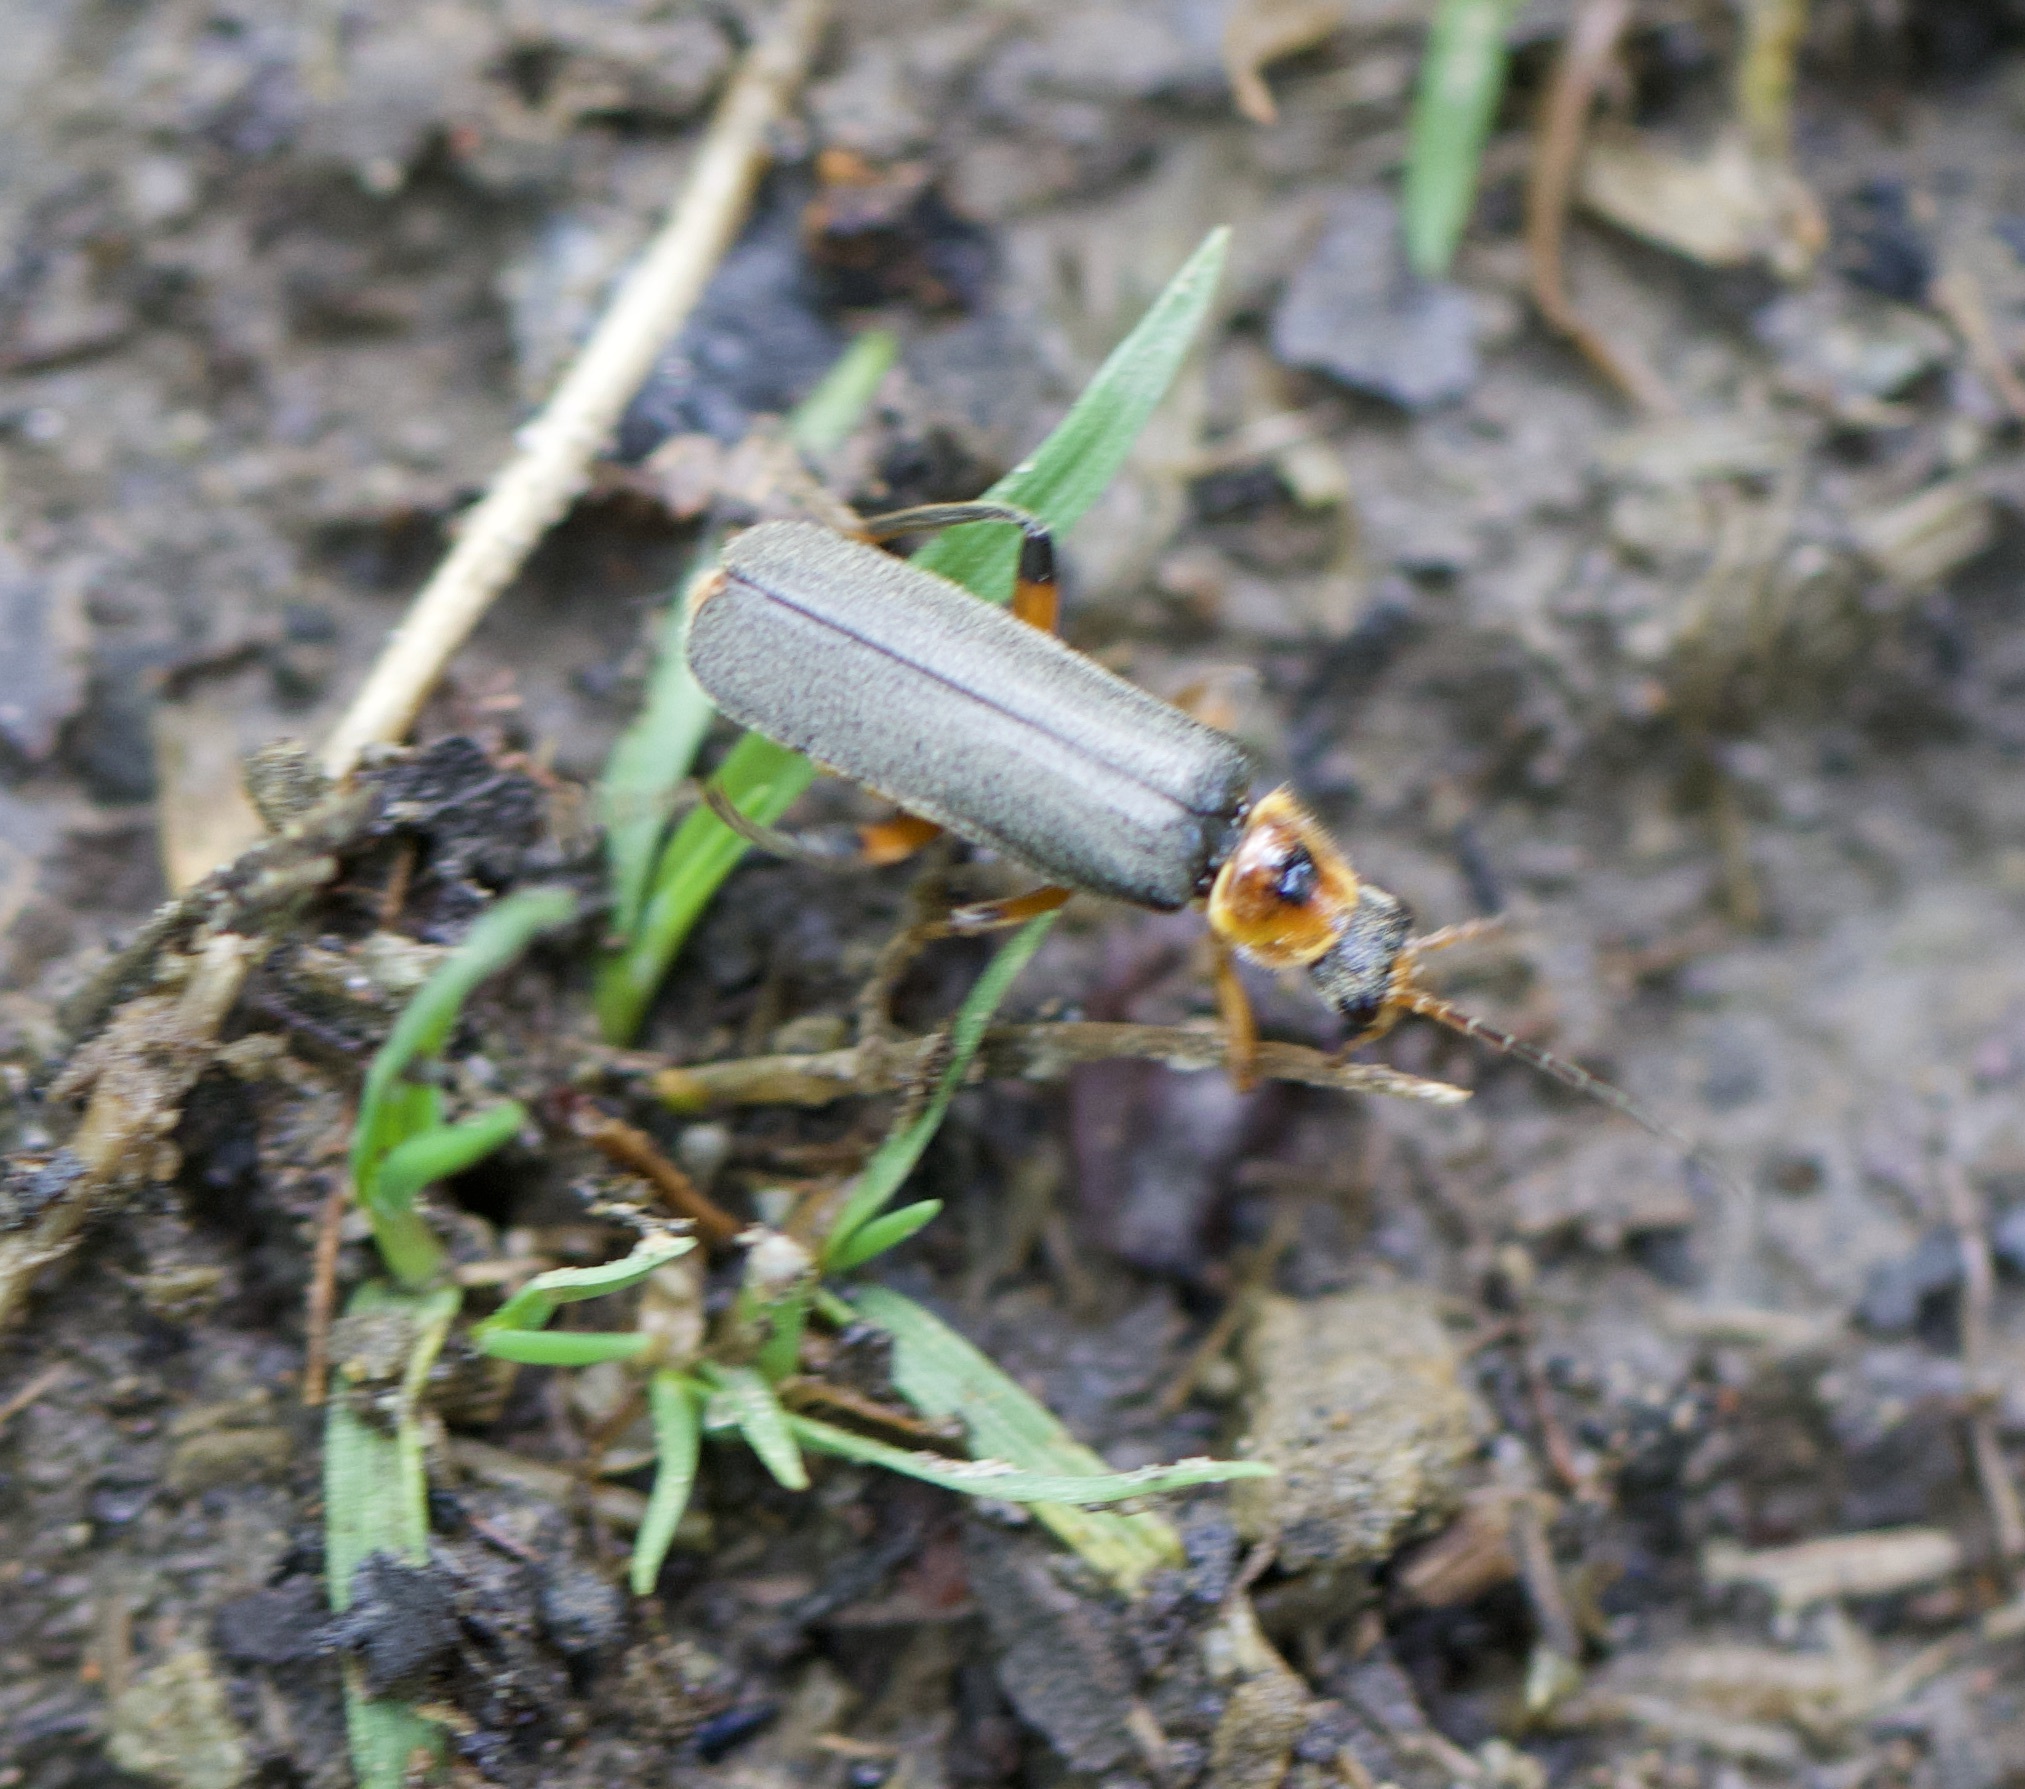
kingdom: Animalia
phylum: Arthropoda
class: Insecta
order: Coleoptera
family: Cantharidae
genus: Cantharis
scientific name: Cantharis nigricans
